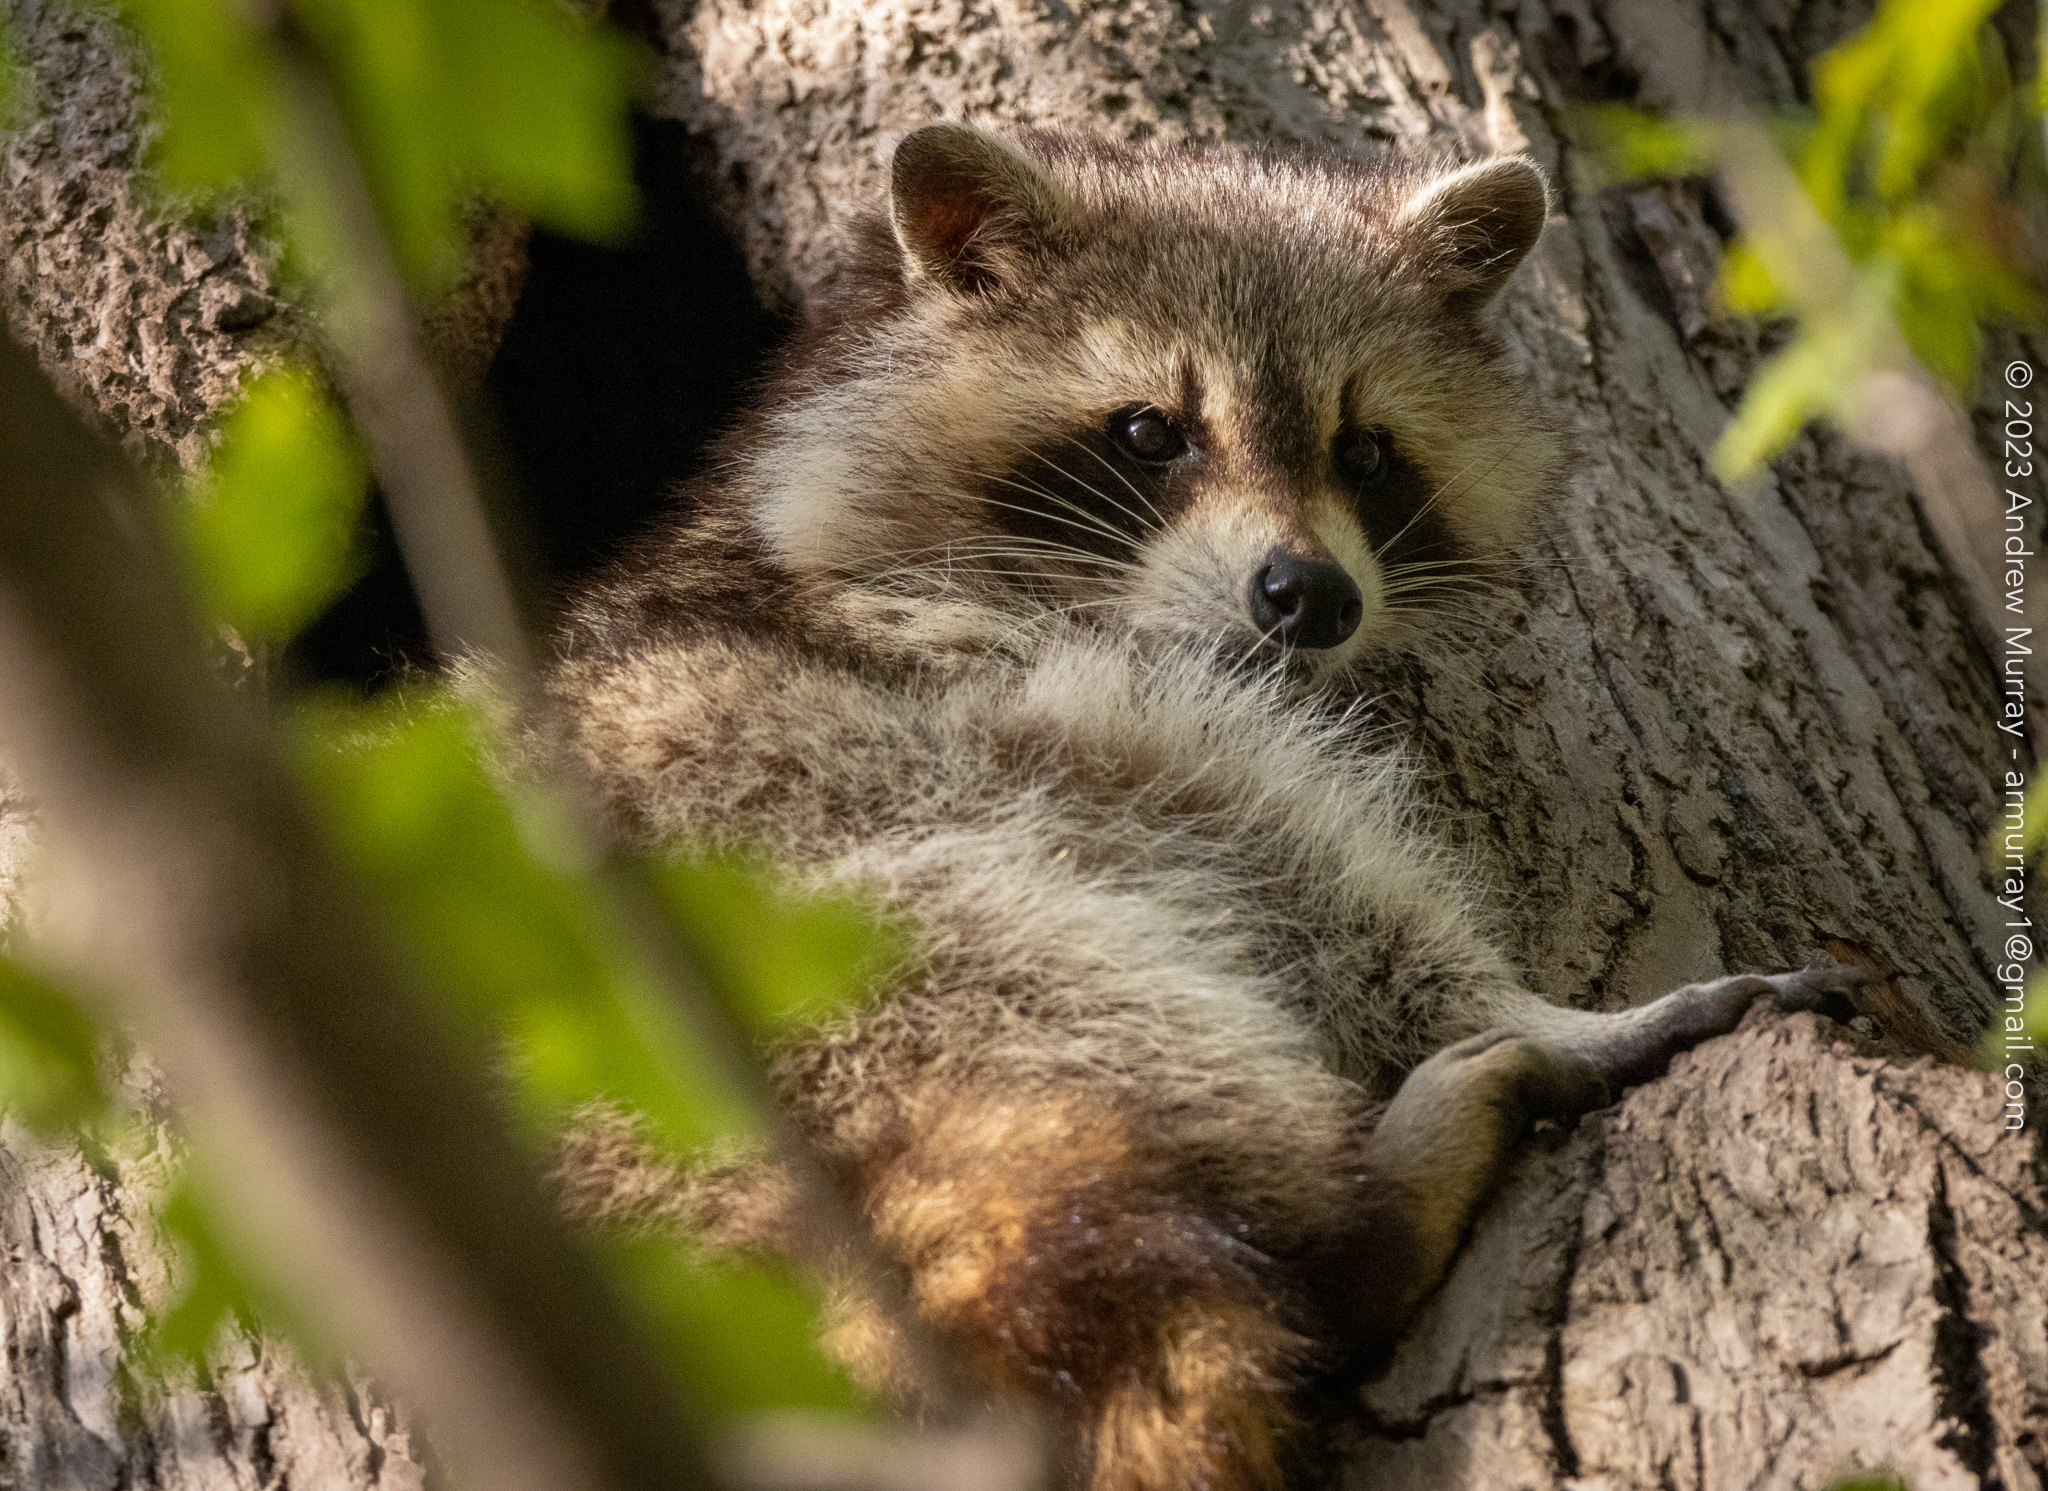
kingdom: Animalia
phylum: Chordata
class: Mammalia
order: Carnivora
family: Procyonidae
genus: Procyon
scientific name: Procyon lotor
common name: Raccoon
